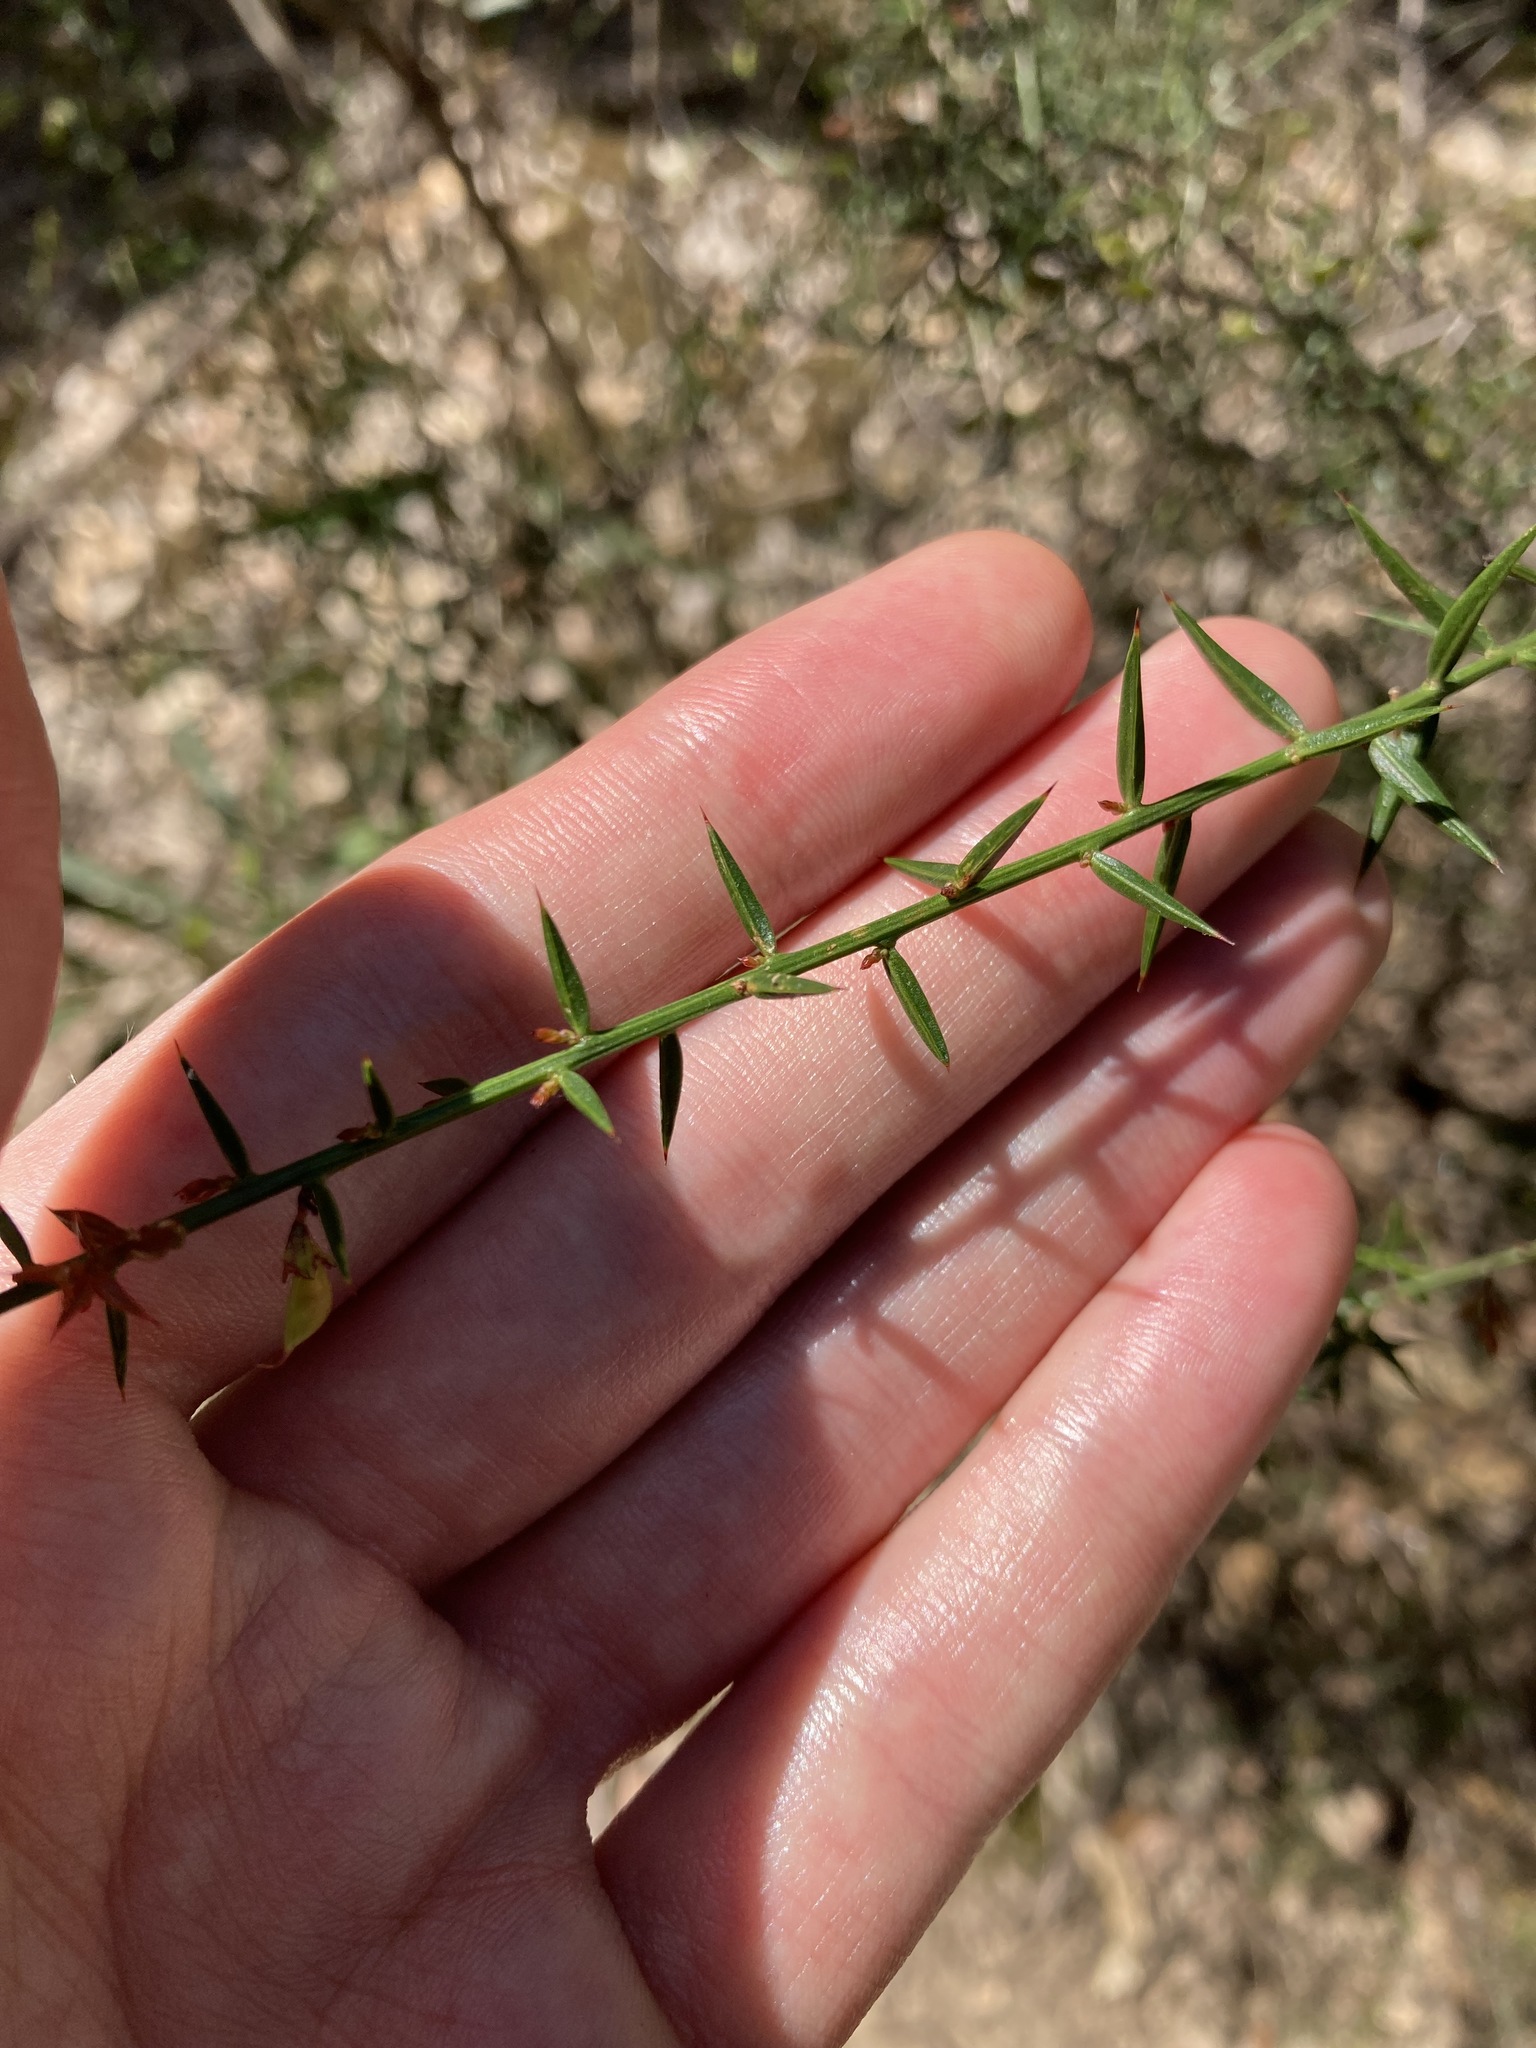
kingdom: Plantae
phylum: Tracheophyta
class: Magnoliopsida
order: Fabales
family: Fabaceae
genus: Daviesia
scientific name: Daviesia ulicifolia
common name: Gorse bitter-pea
